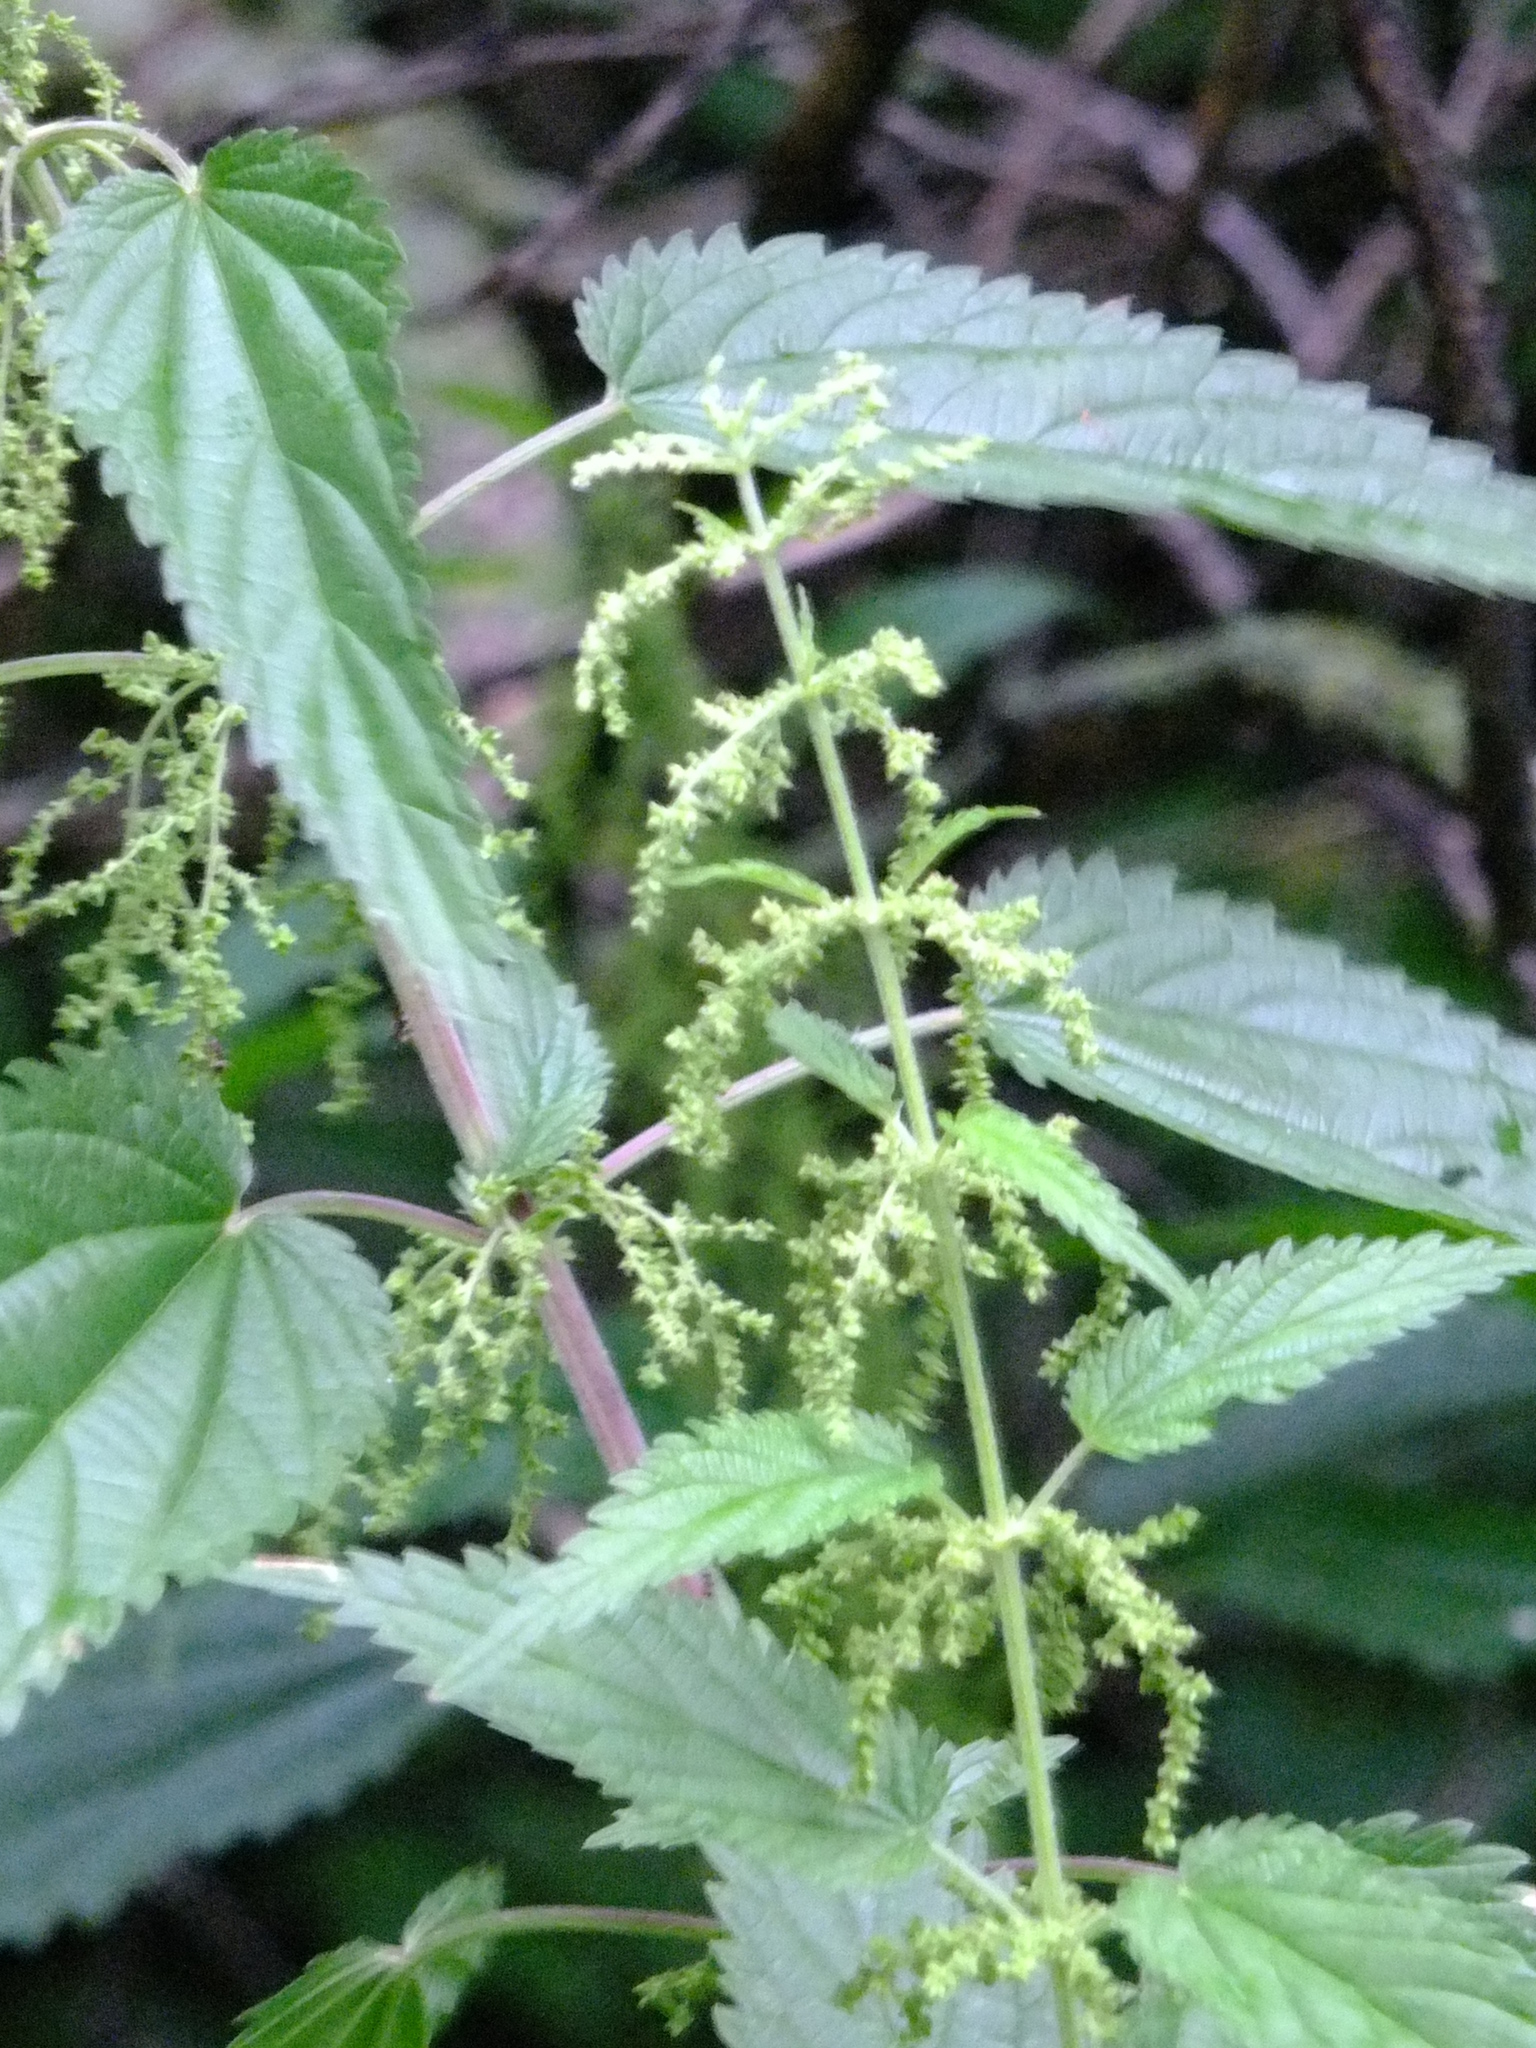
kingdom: Plantae
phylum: Tracheophyta
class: Magnoliopsida
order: Rosales
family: Urticaceae
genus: Urtica
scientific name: Urtica dioica
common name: Common nettle
